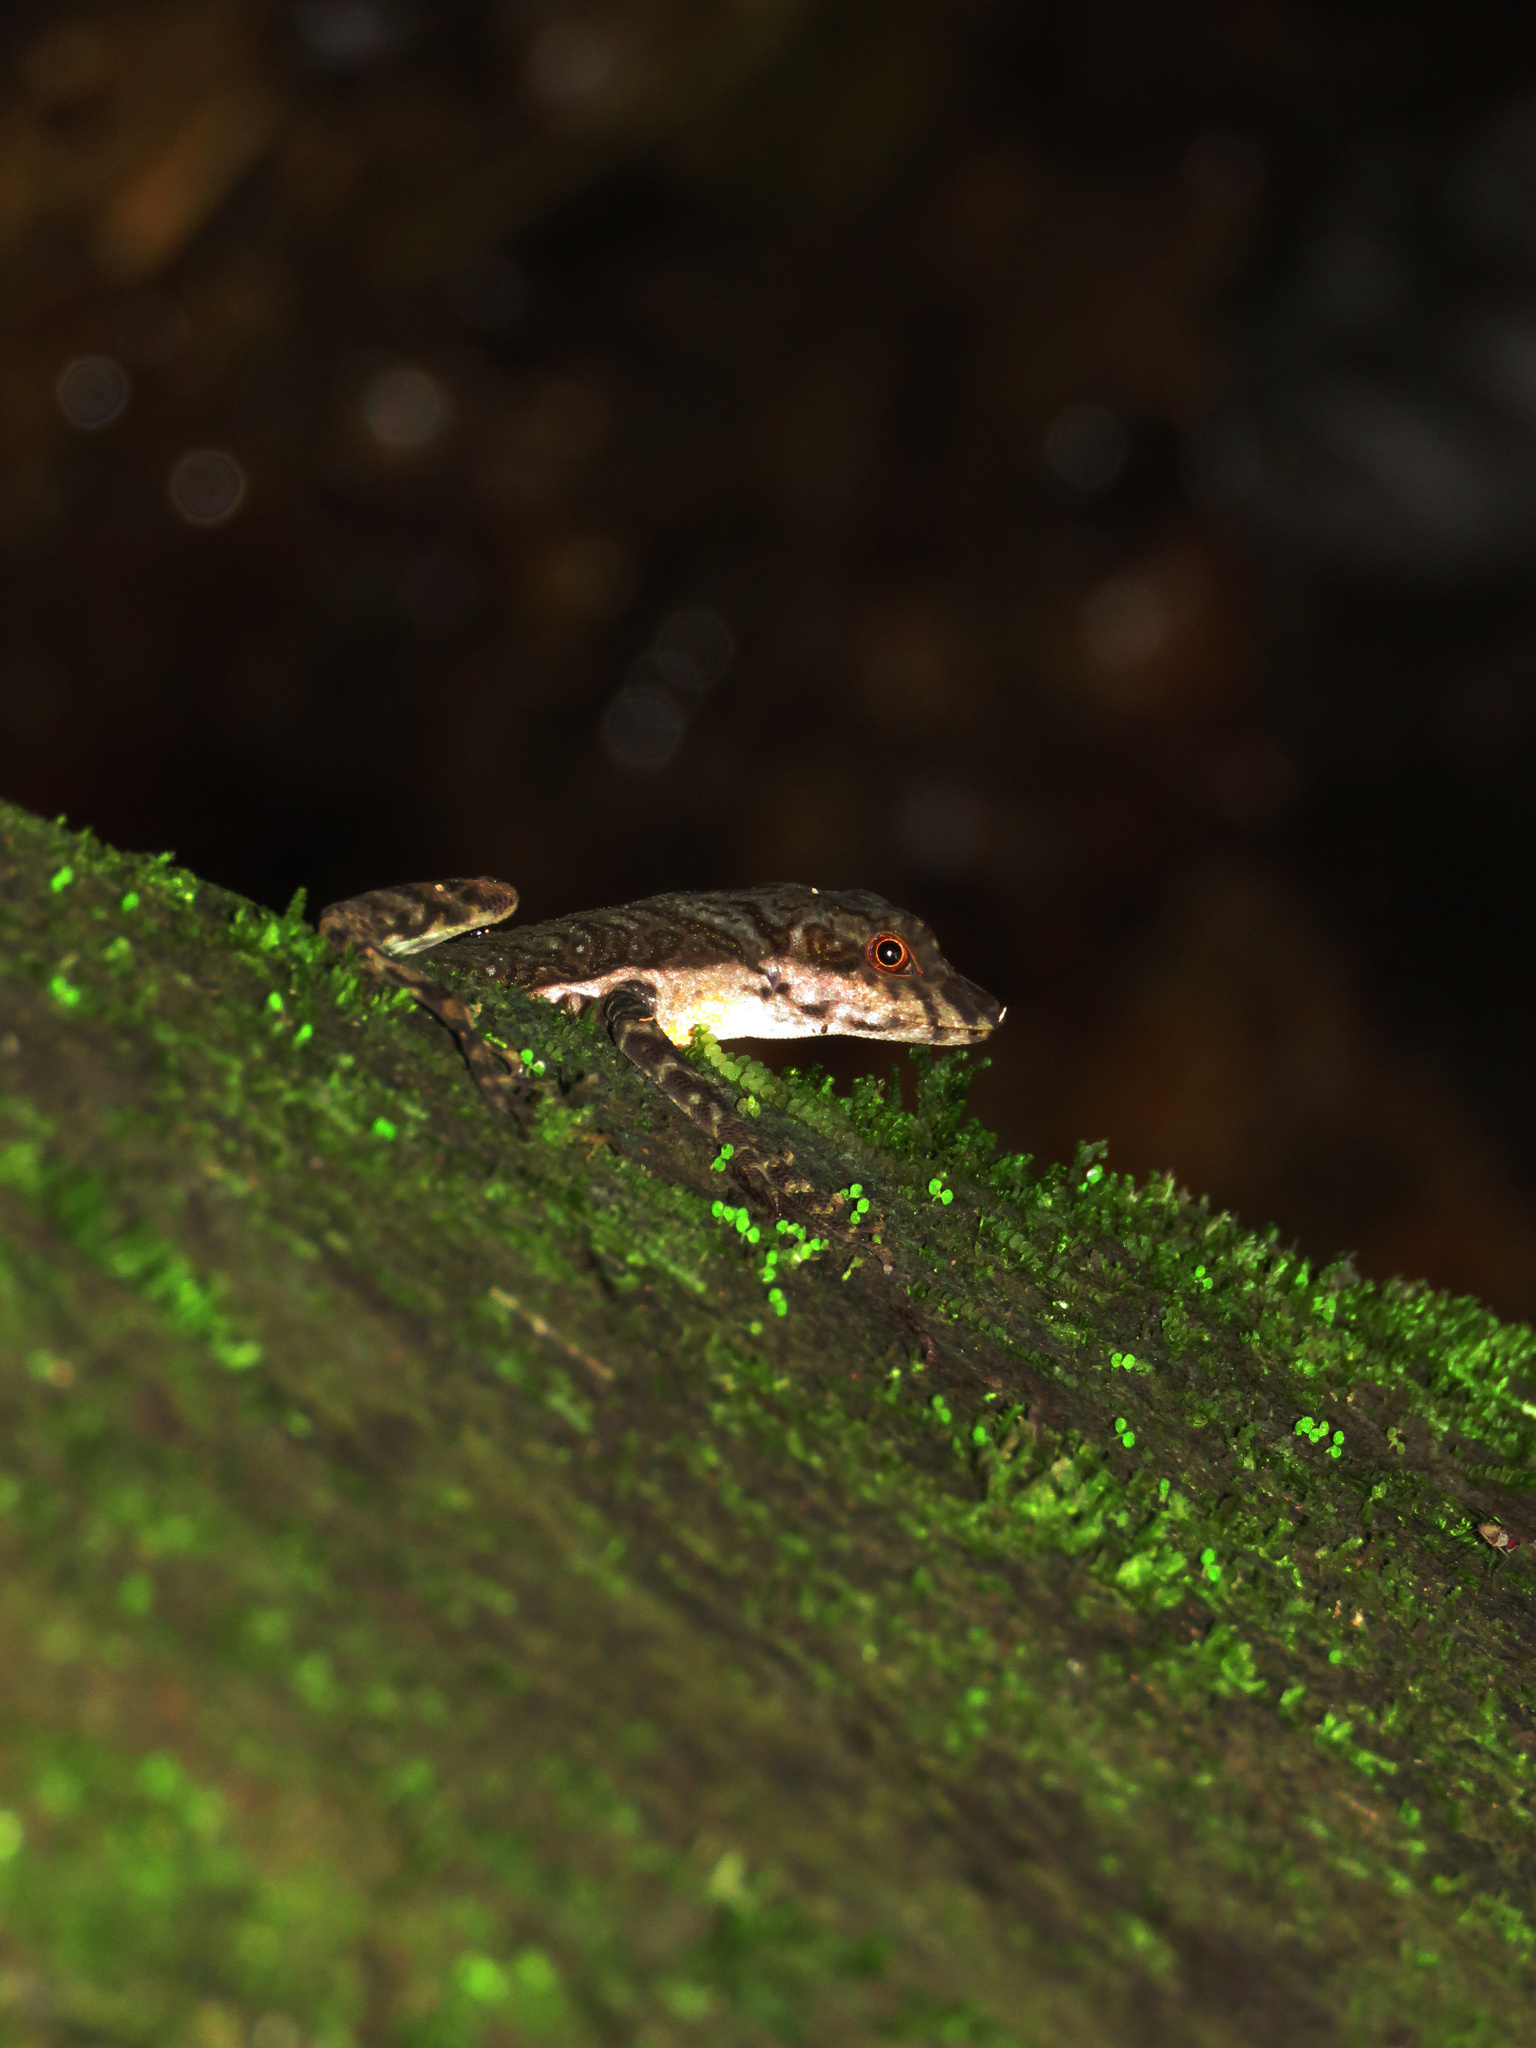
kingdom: Animalia
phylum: Chordata
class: Squamata
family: Dactyloidae
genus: Anolis
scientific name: Anolis oxylophus
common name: Stream anole
